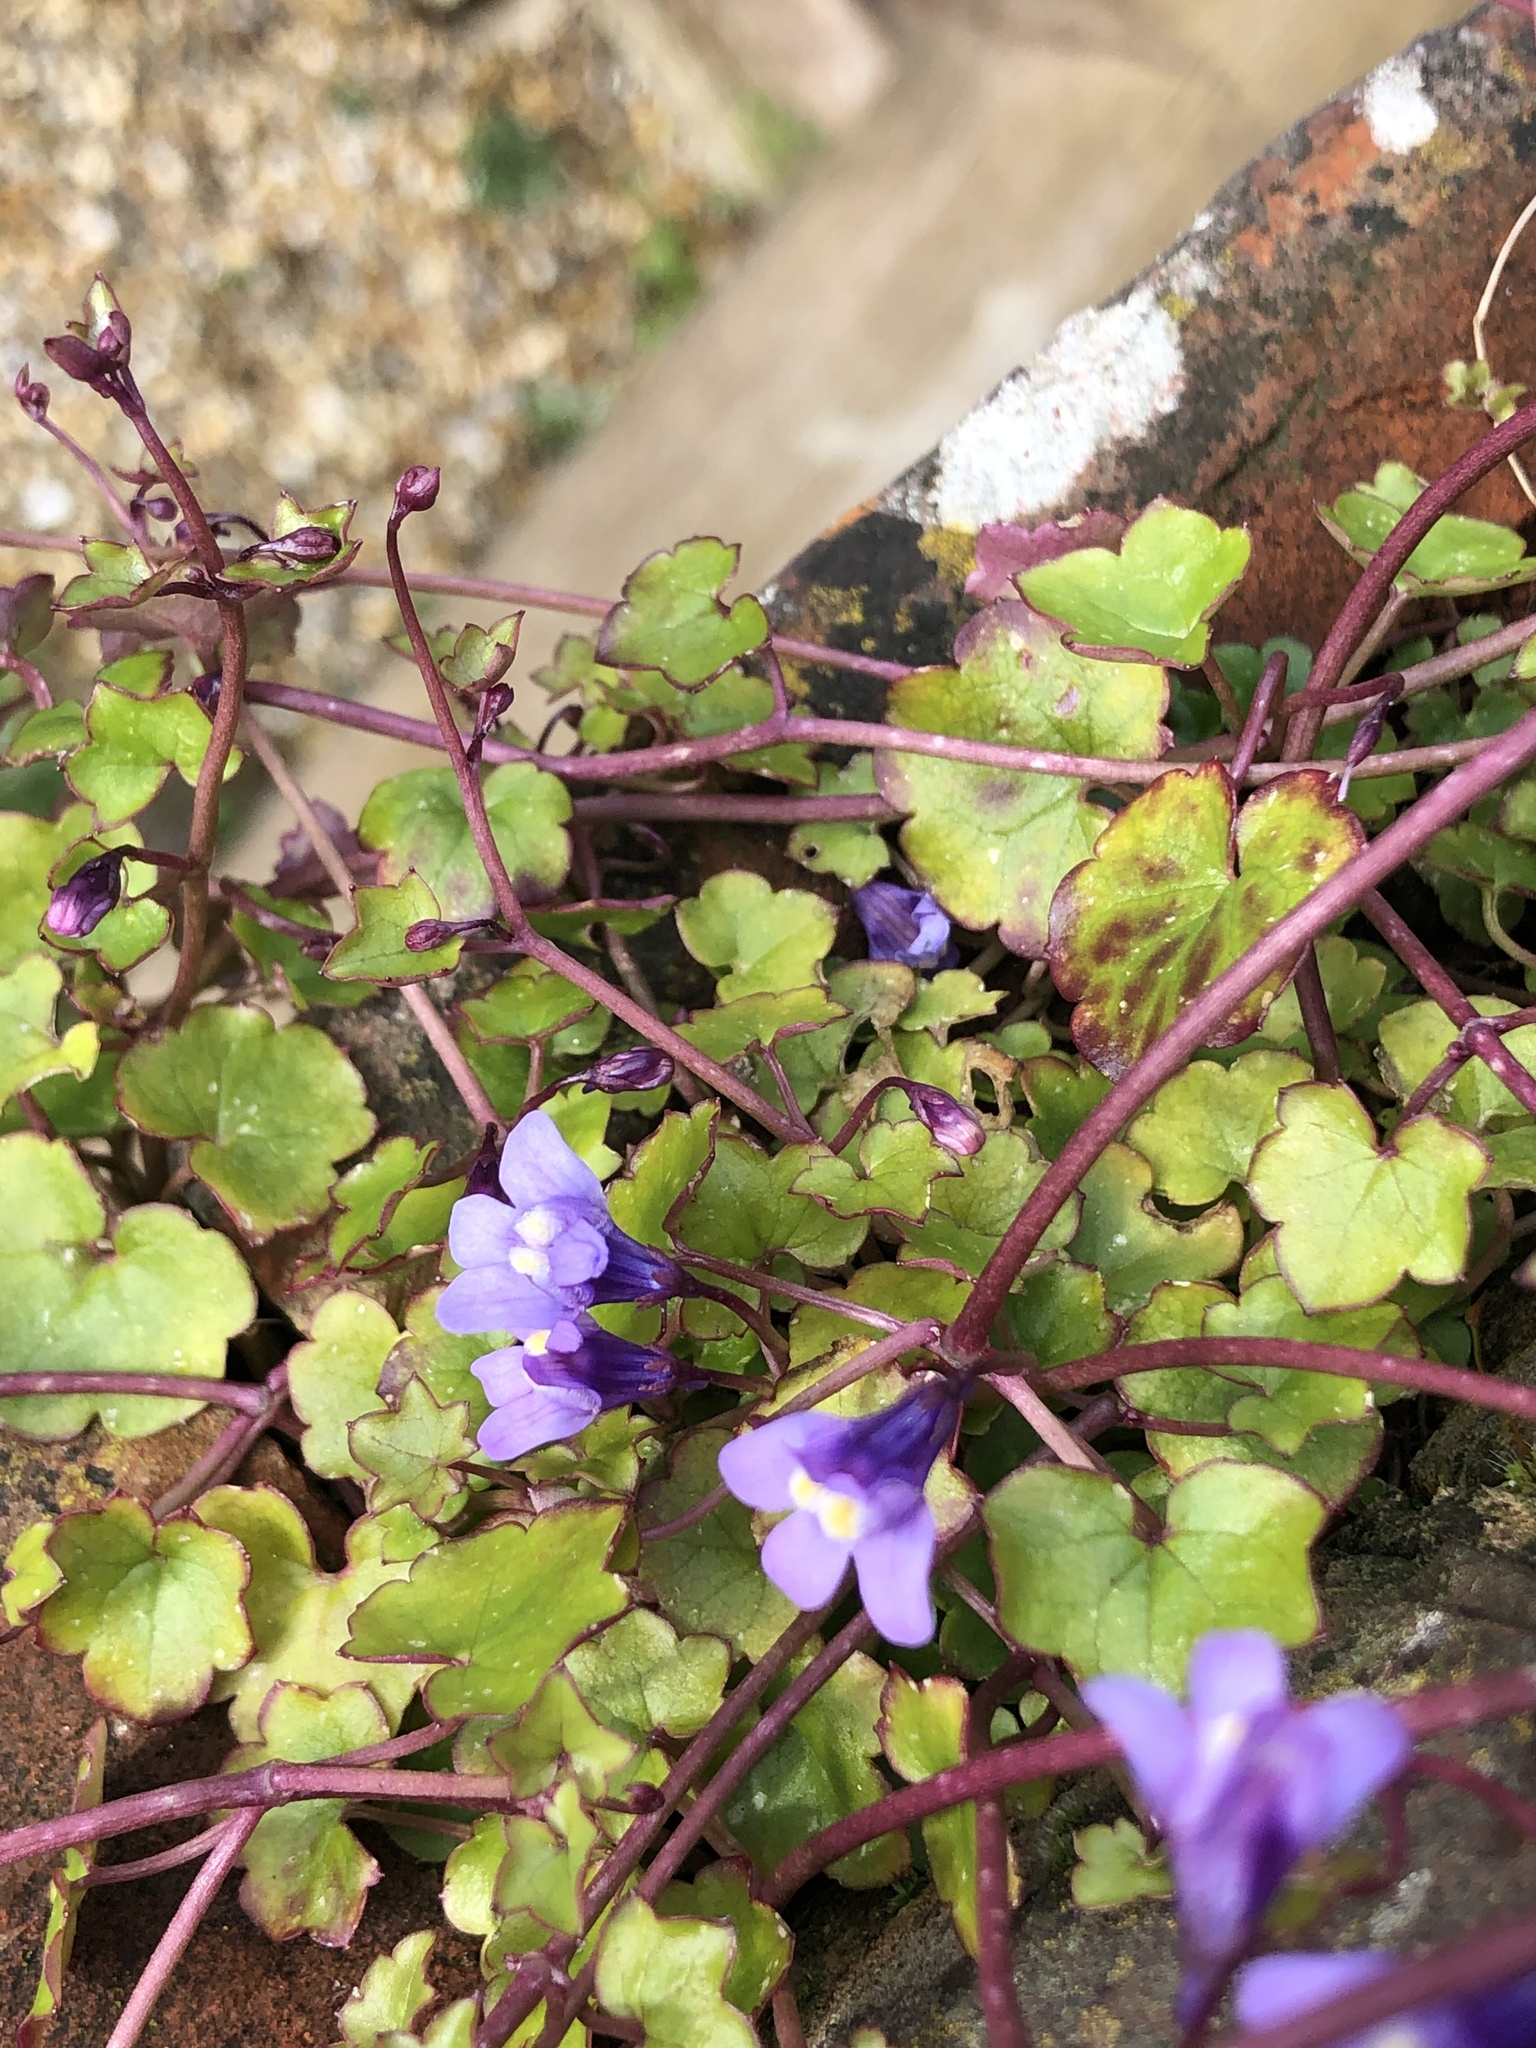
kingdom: Plantae
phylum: Tracheophyta
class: Magnoliopsida
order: Lamiales
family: Plantaginaceae
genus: Cymbalaria
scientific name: Cymbalaria muralis
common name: Ivy-leaved toadflax
